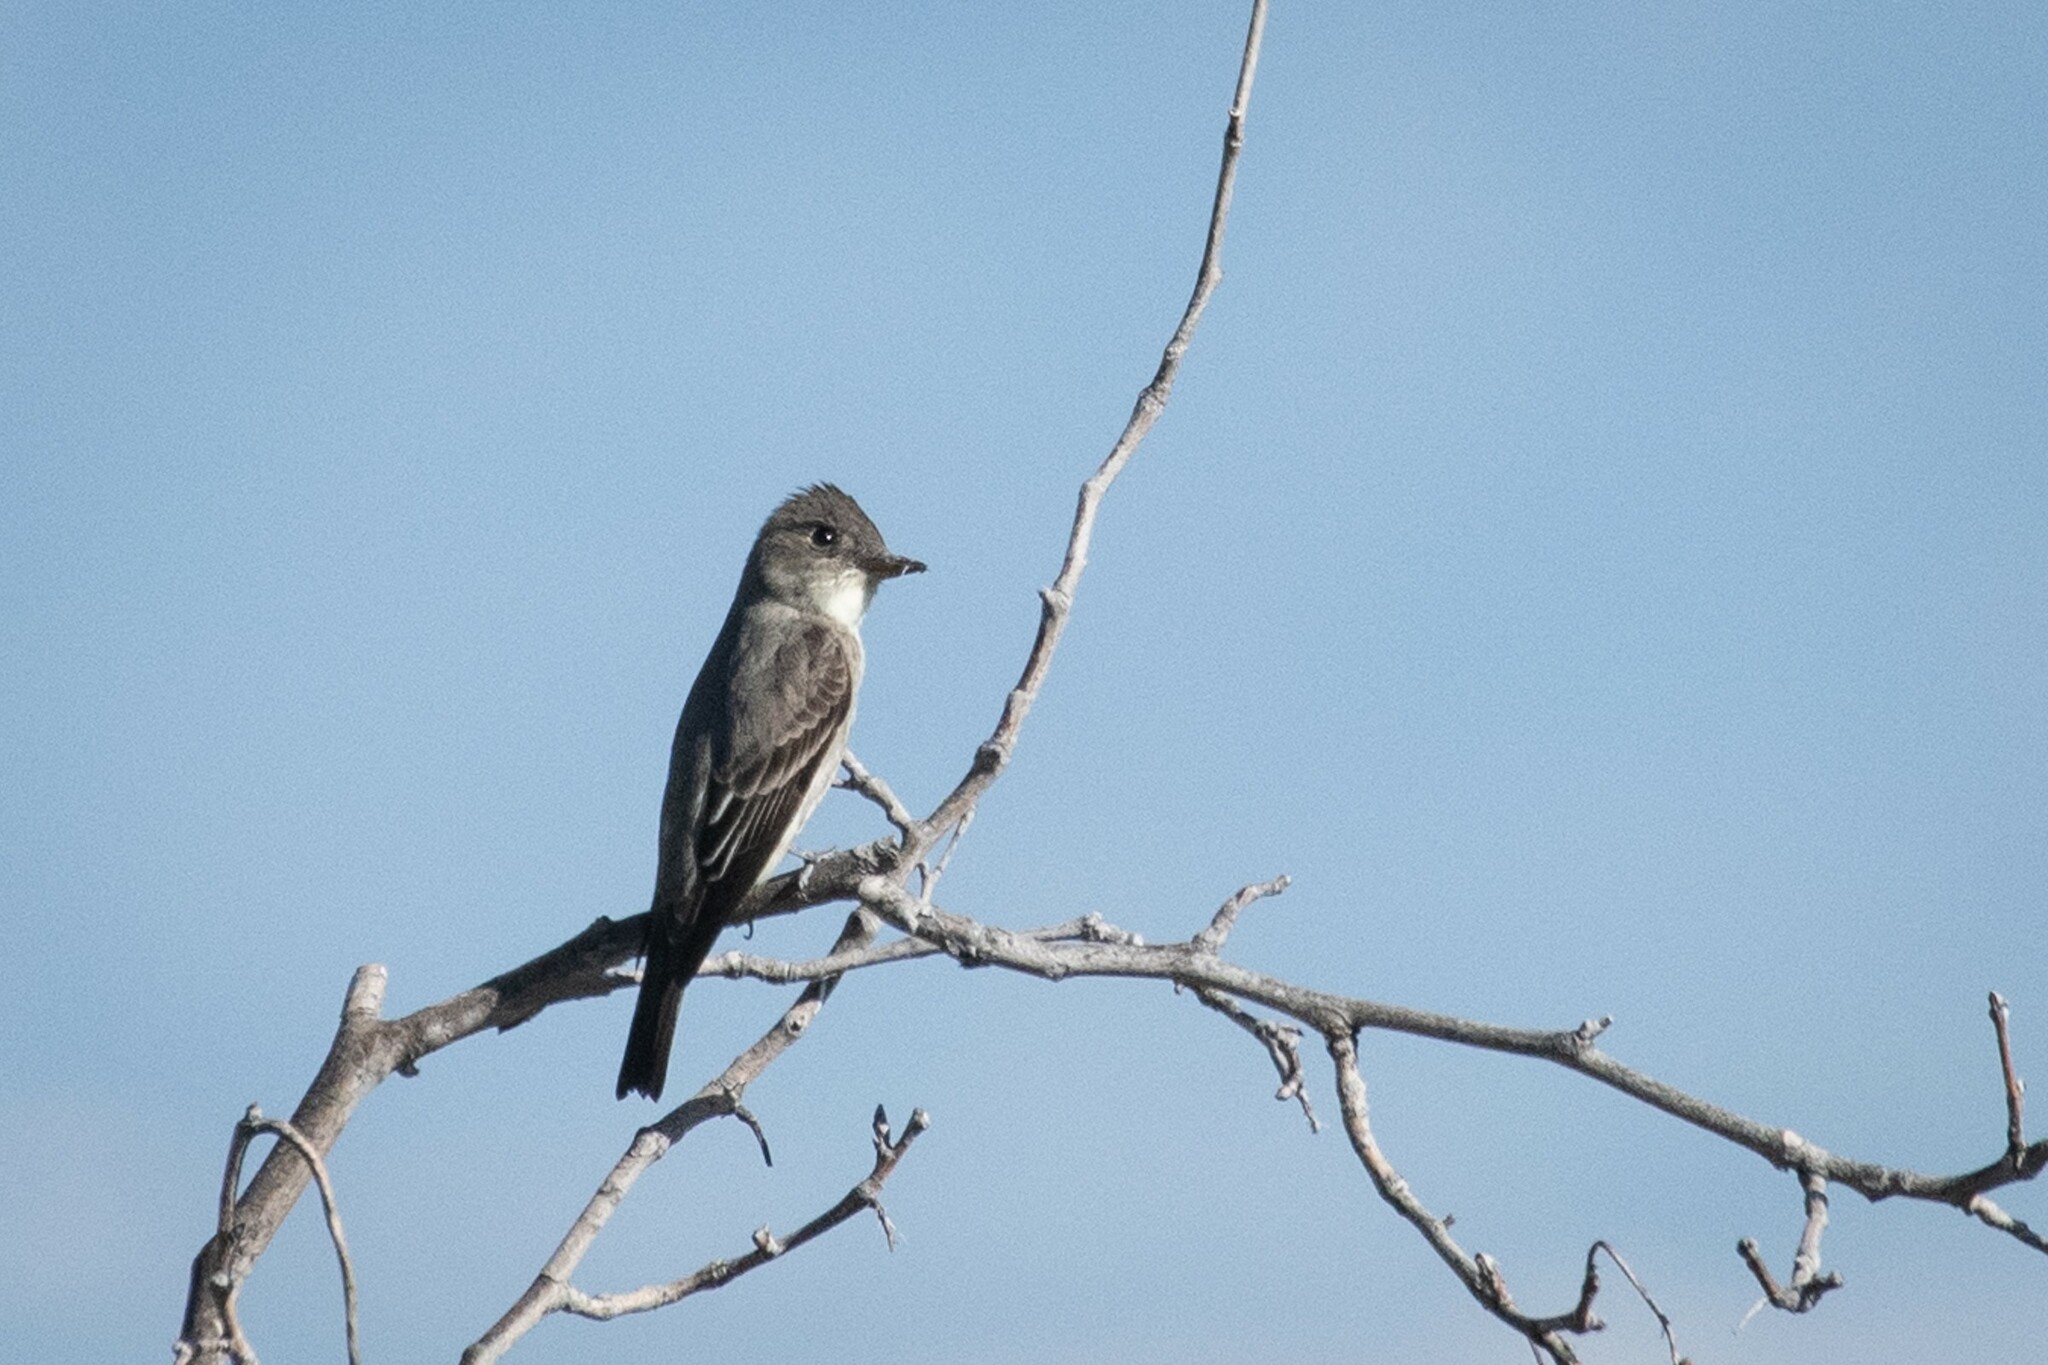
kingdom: Animalia
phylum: Chordata
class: Aves
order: Passeriformes
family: Tyrannidae
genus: Contopus
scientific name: Contopus cooperi
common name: Olive-sided flycatcher
